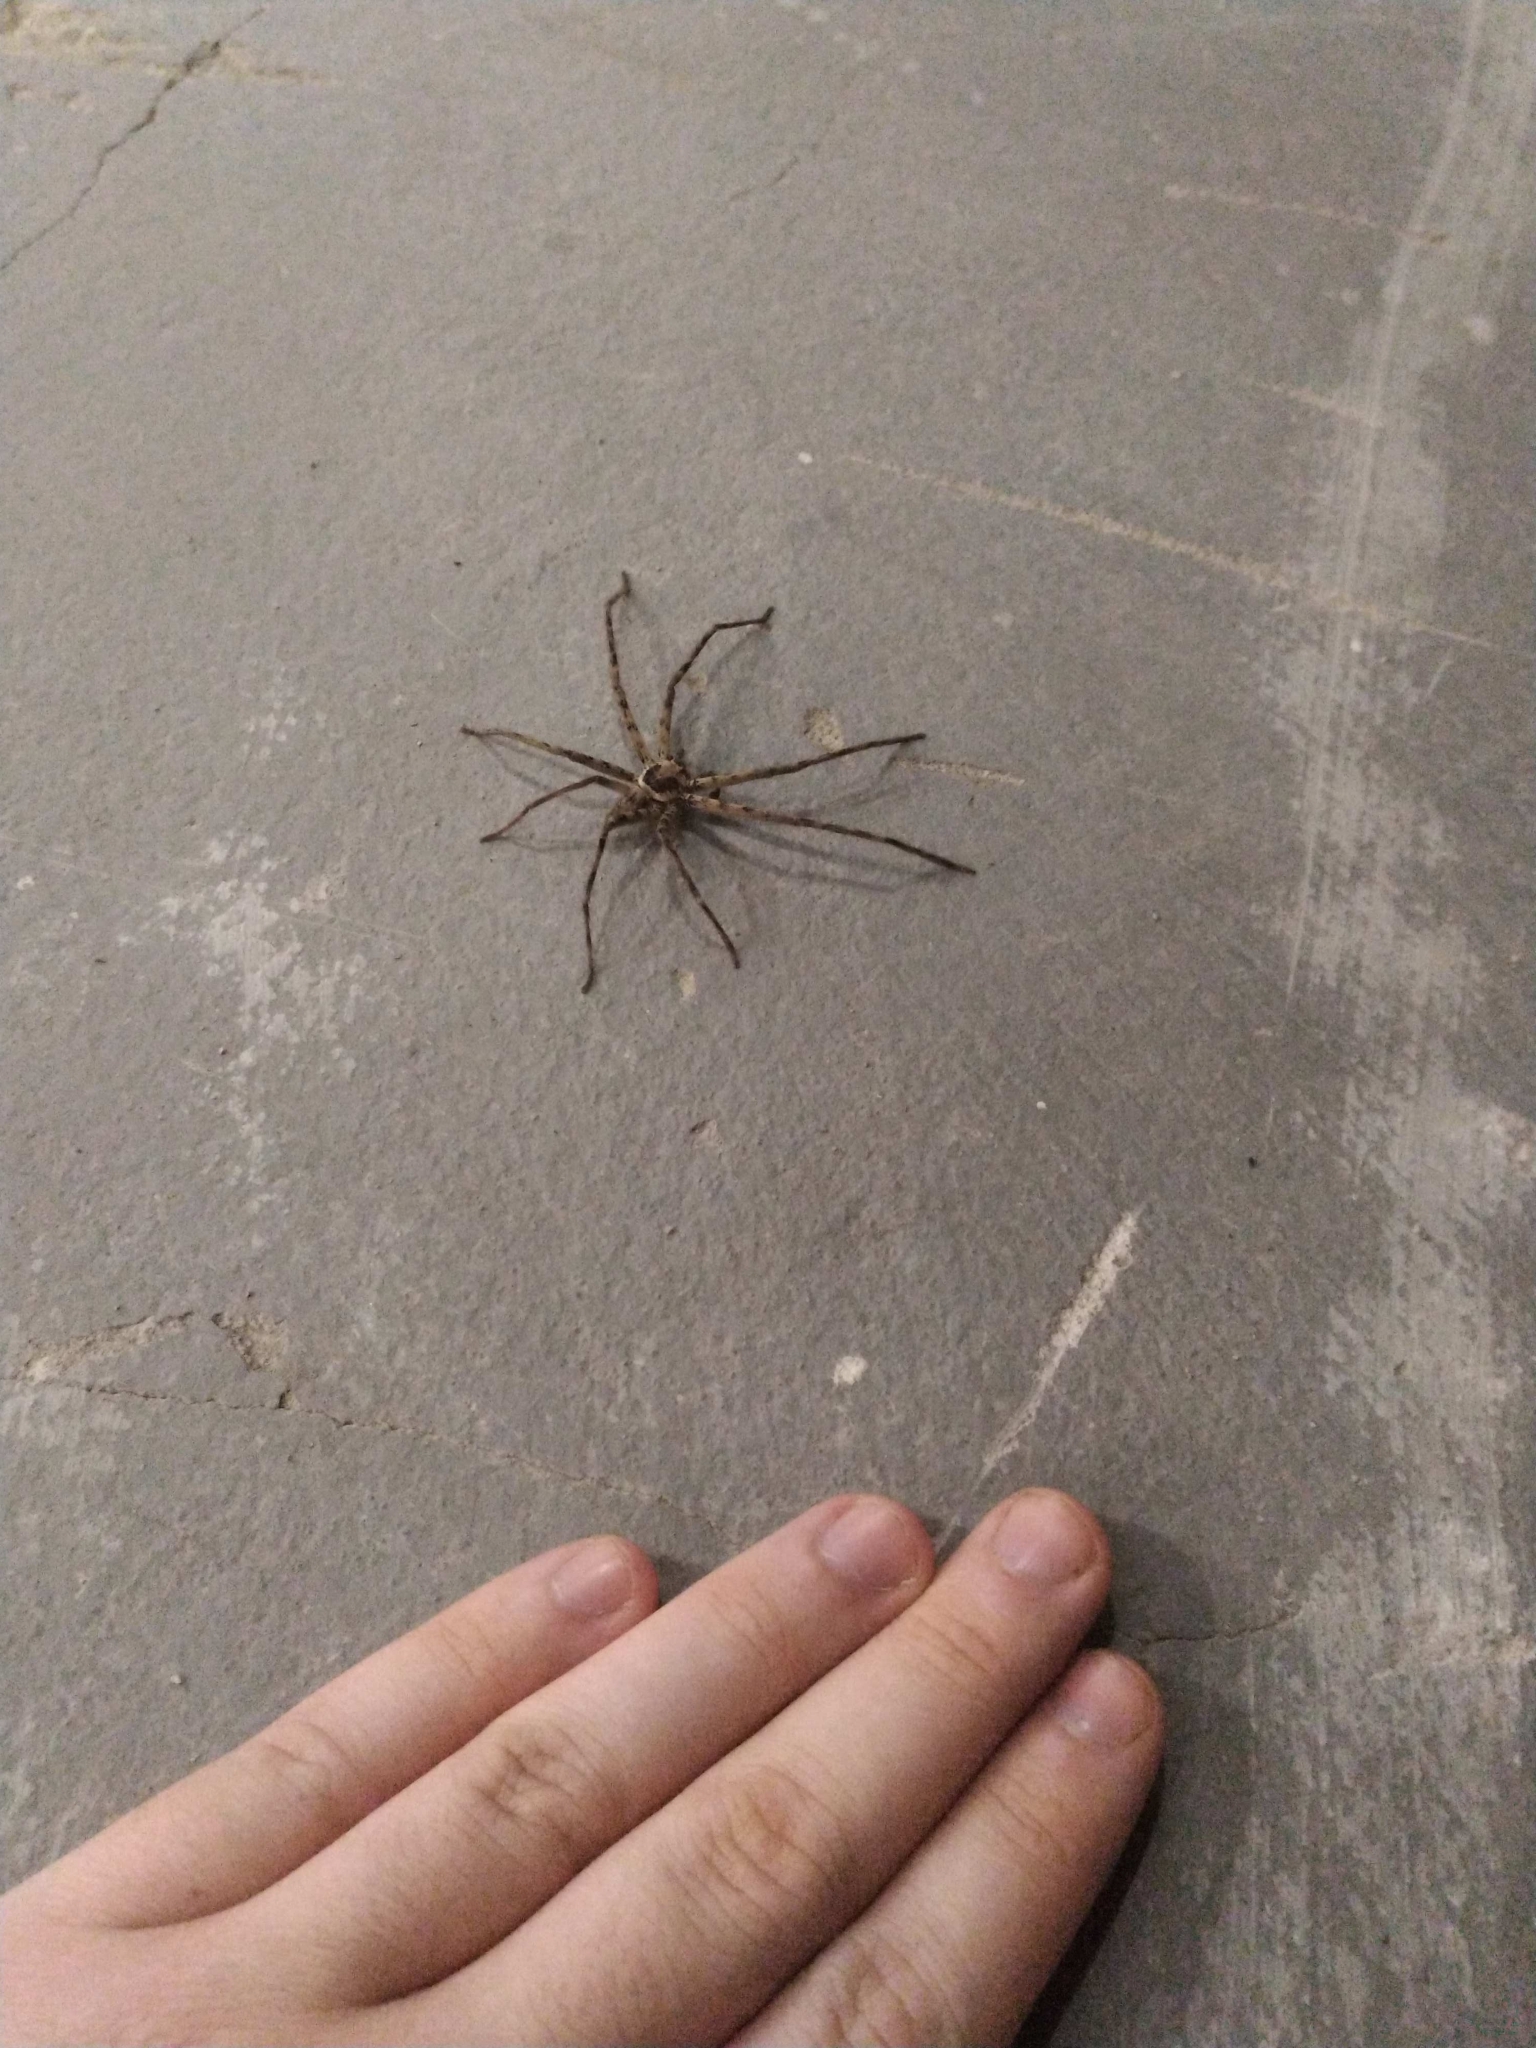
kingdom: Animalia
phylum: Arthropoda
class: Arachnida
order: Araneae
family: Sparassidae
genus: Heteropoda
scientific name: Heteropoda venatoria
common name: Huntsman spider
